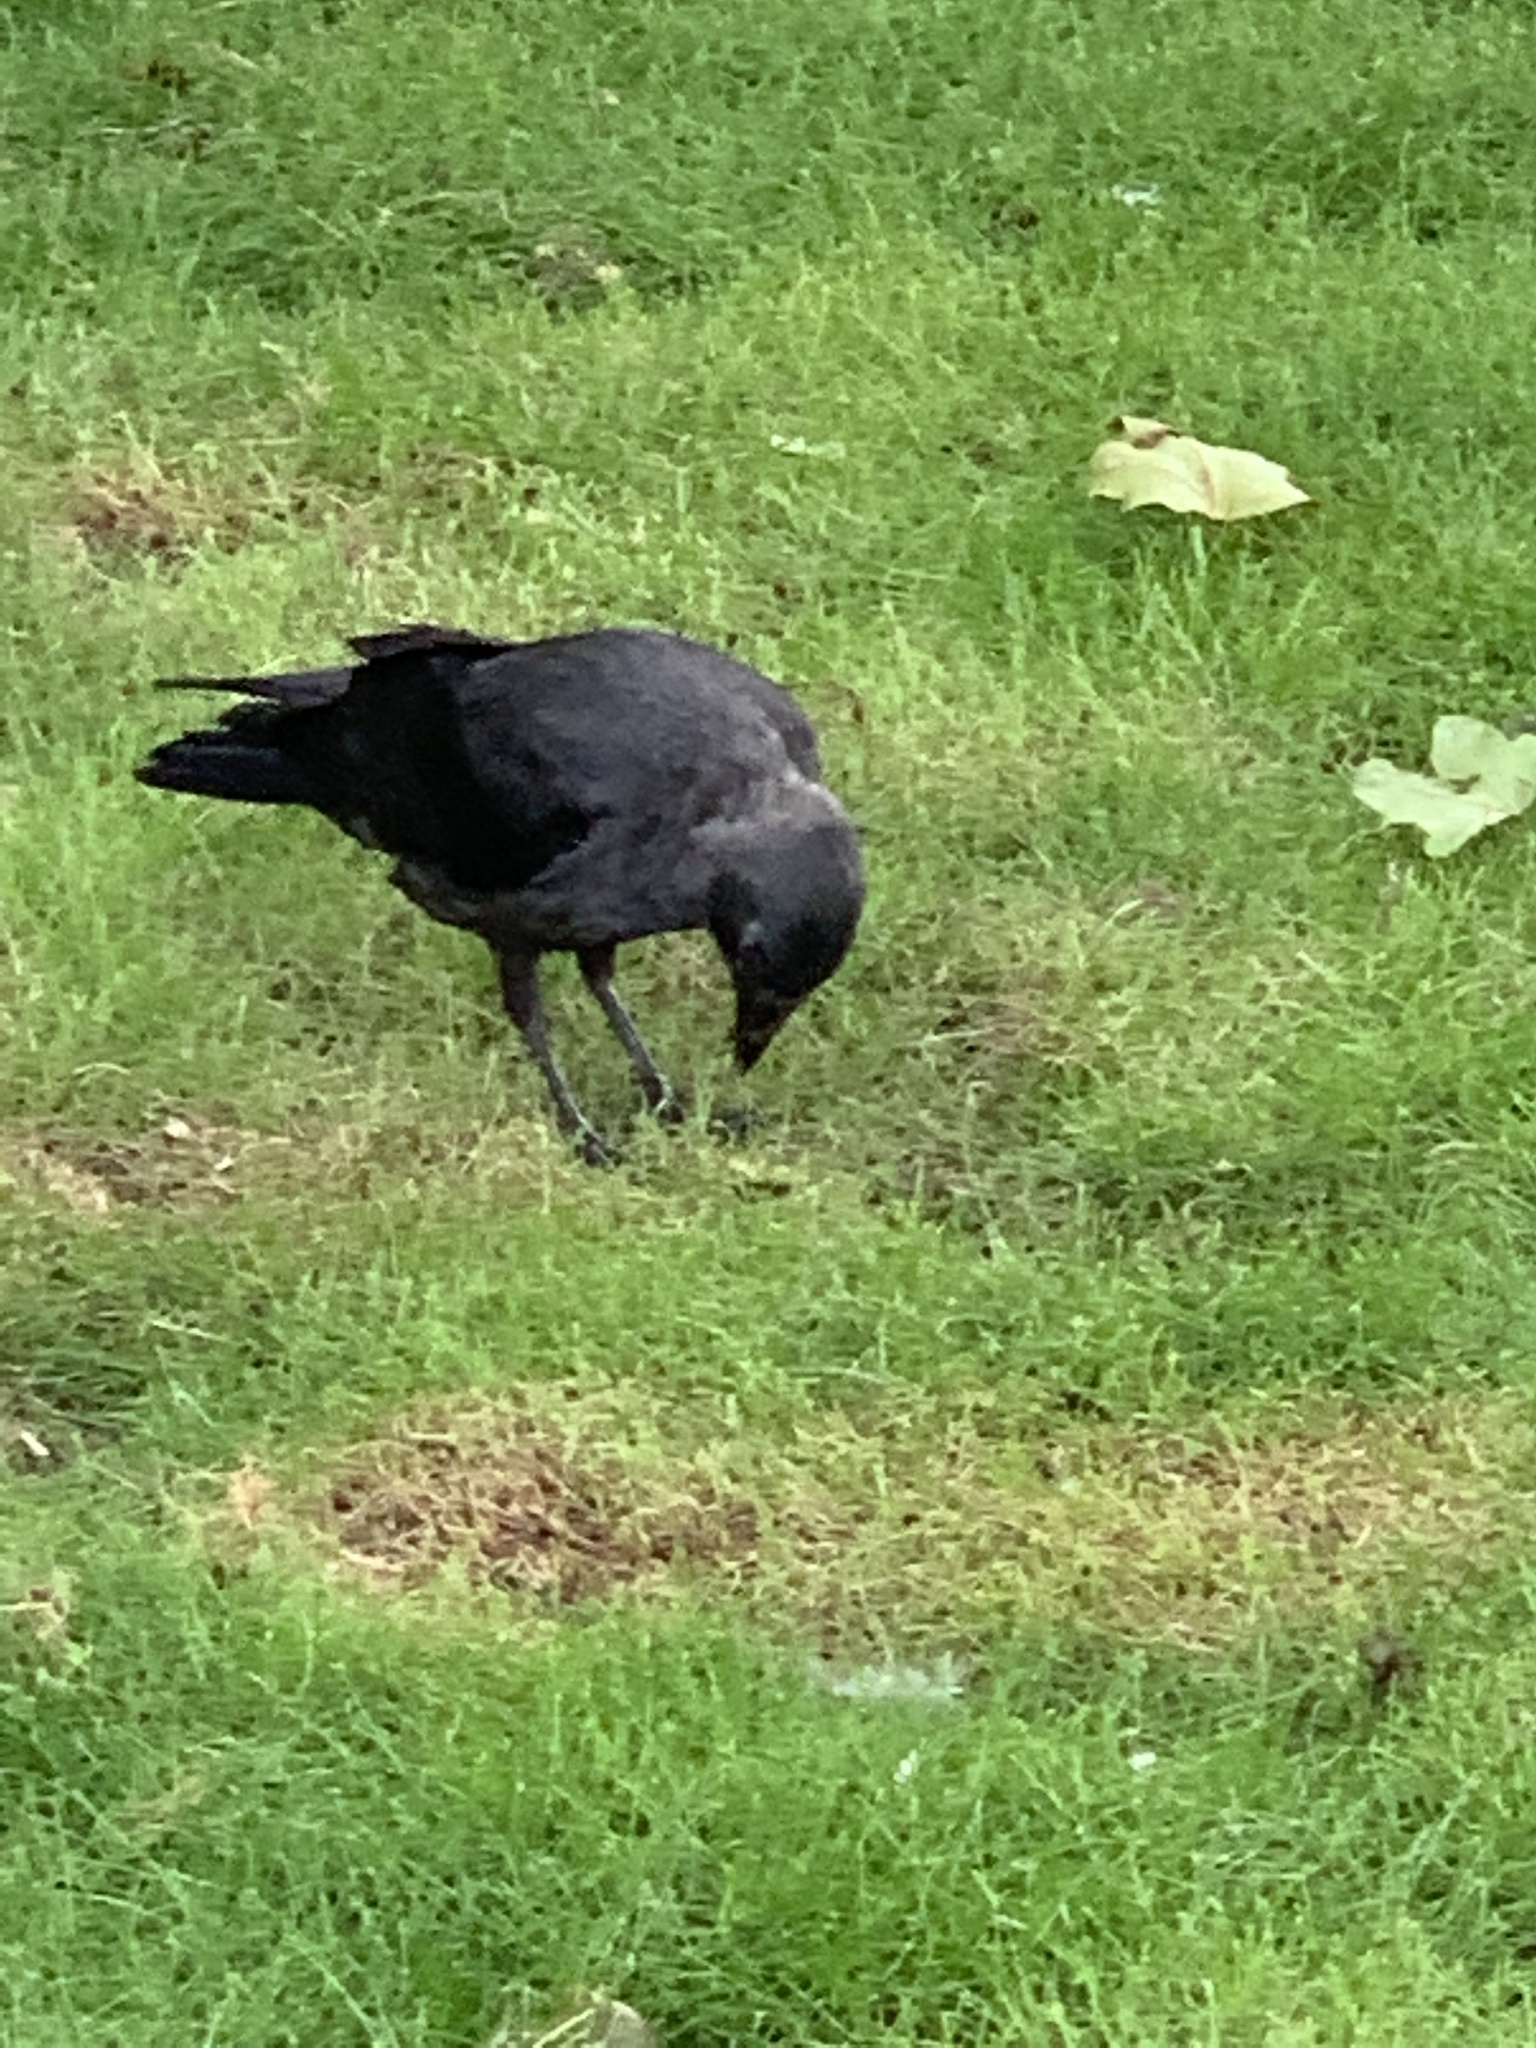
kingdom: Animalia
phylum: Chordata
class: Aves
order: Passeriformes
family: Corvidae
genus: Coloeus
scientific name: Coloeus monedula
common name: Western jackdaw
